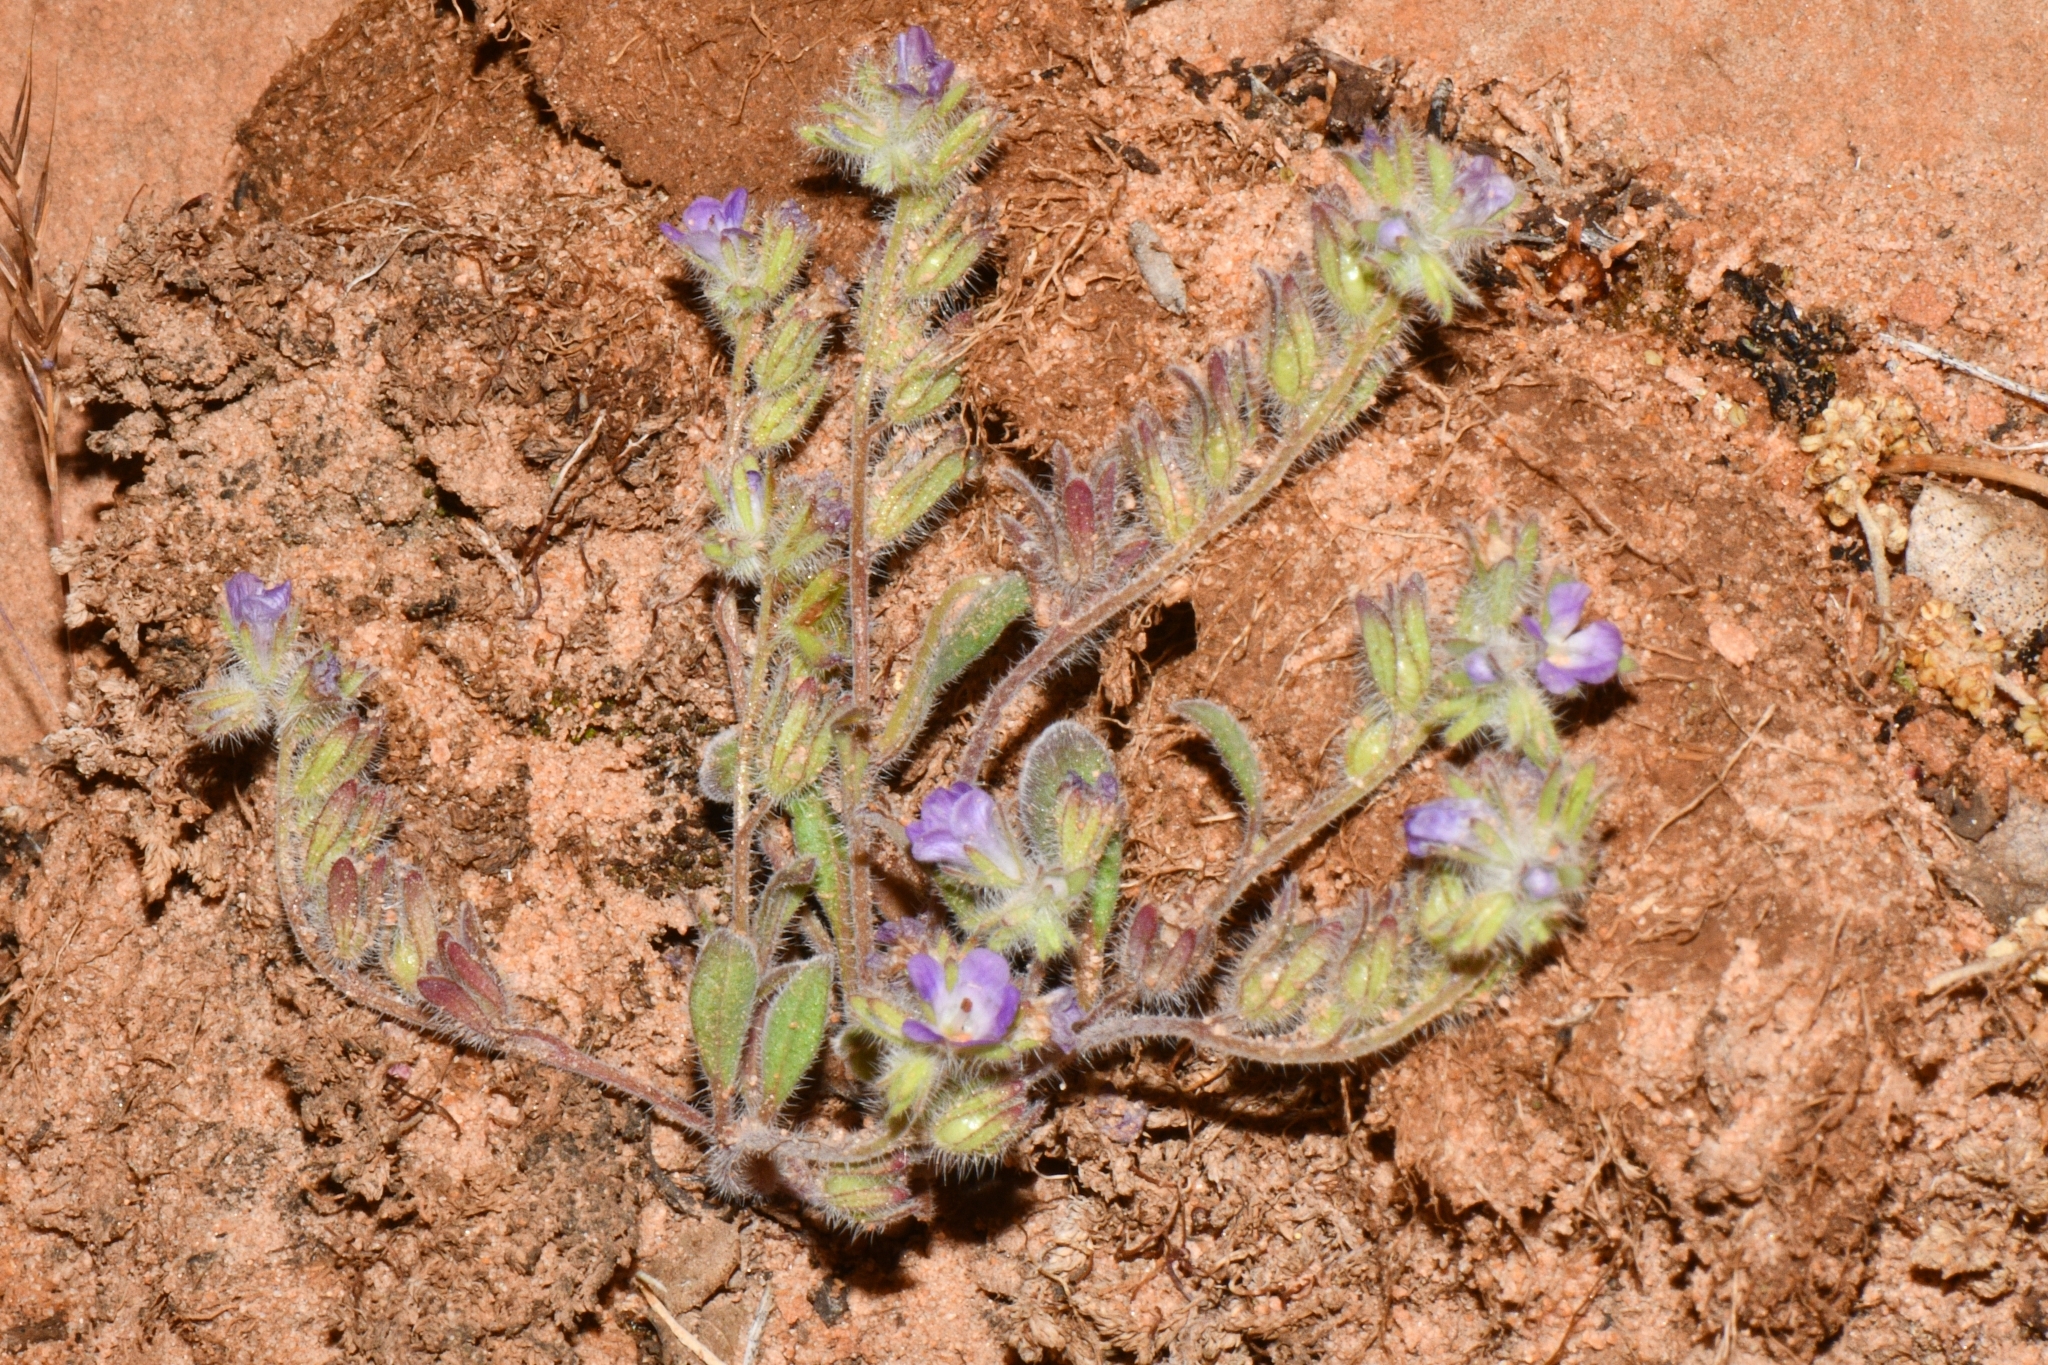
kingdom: Plantae
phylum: Tracheophyta
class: Magnoliopsida
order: Boraginales
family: Hydrophyllaceae
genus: Phacelia
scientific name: Phacelia curvipes
